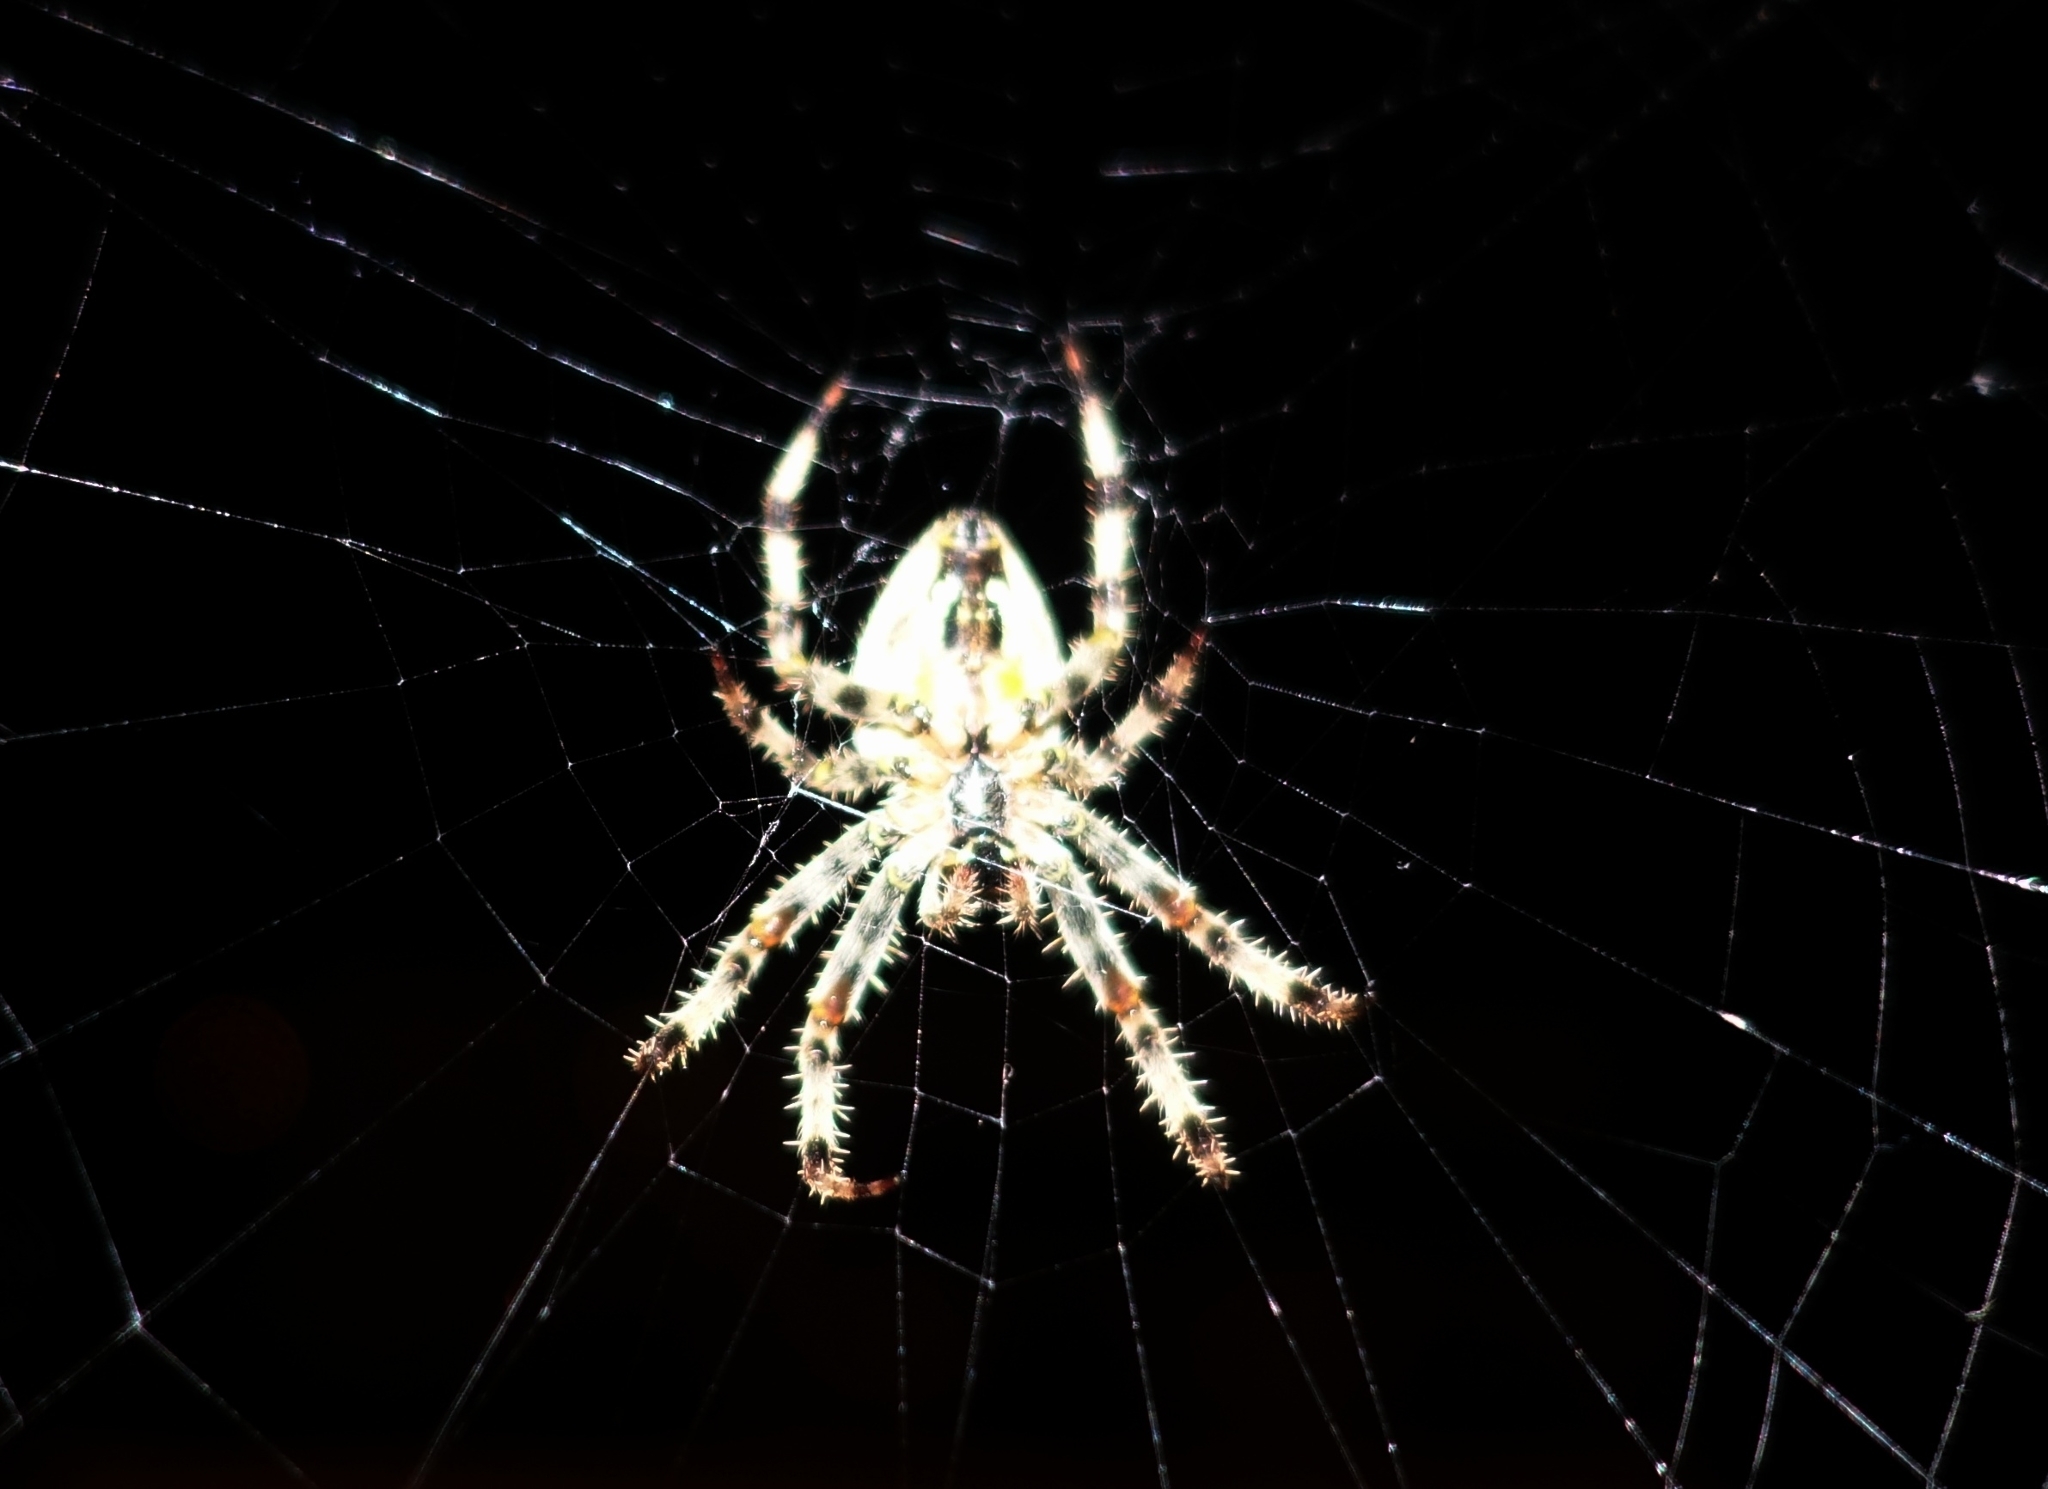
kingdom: Animalia
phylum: Arthropoda
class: Arachnida
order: Araneae
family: Araneidae
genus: Araneus
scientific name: Araneus diadematus
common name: Cross orbweaver
